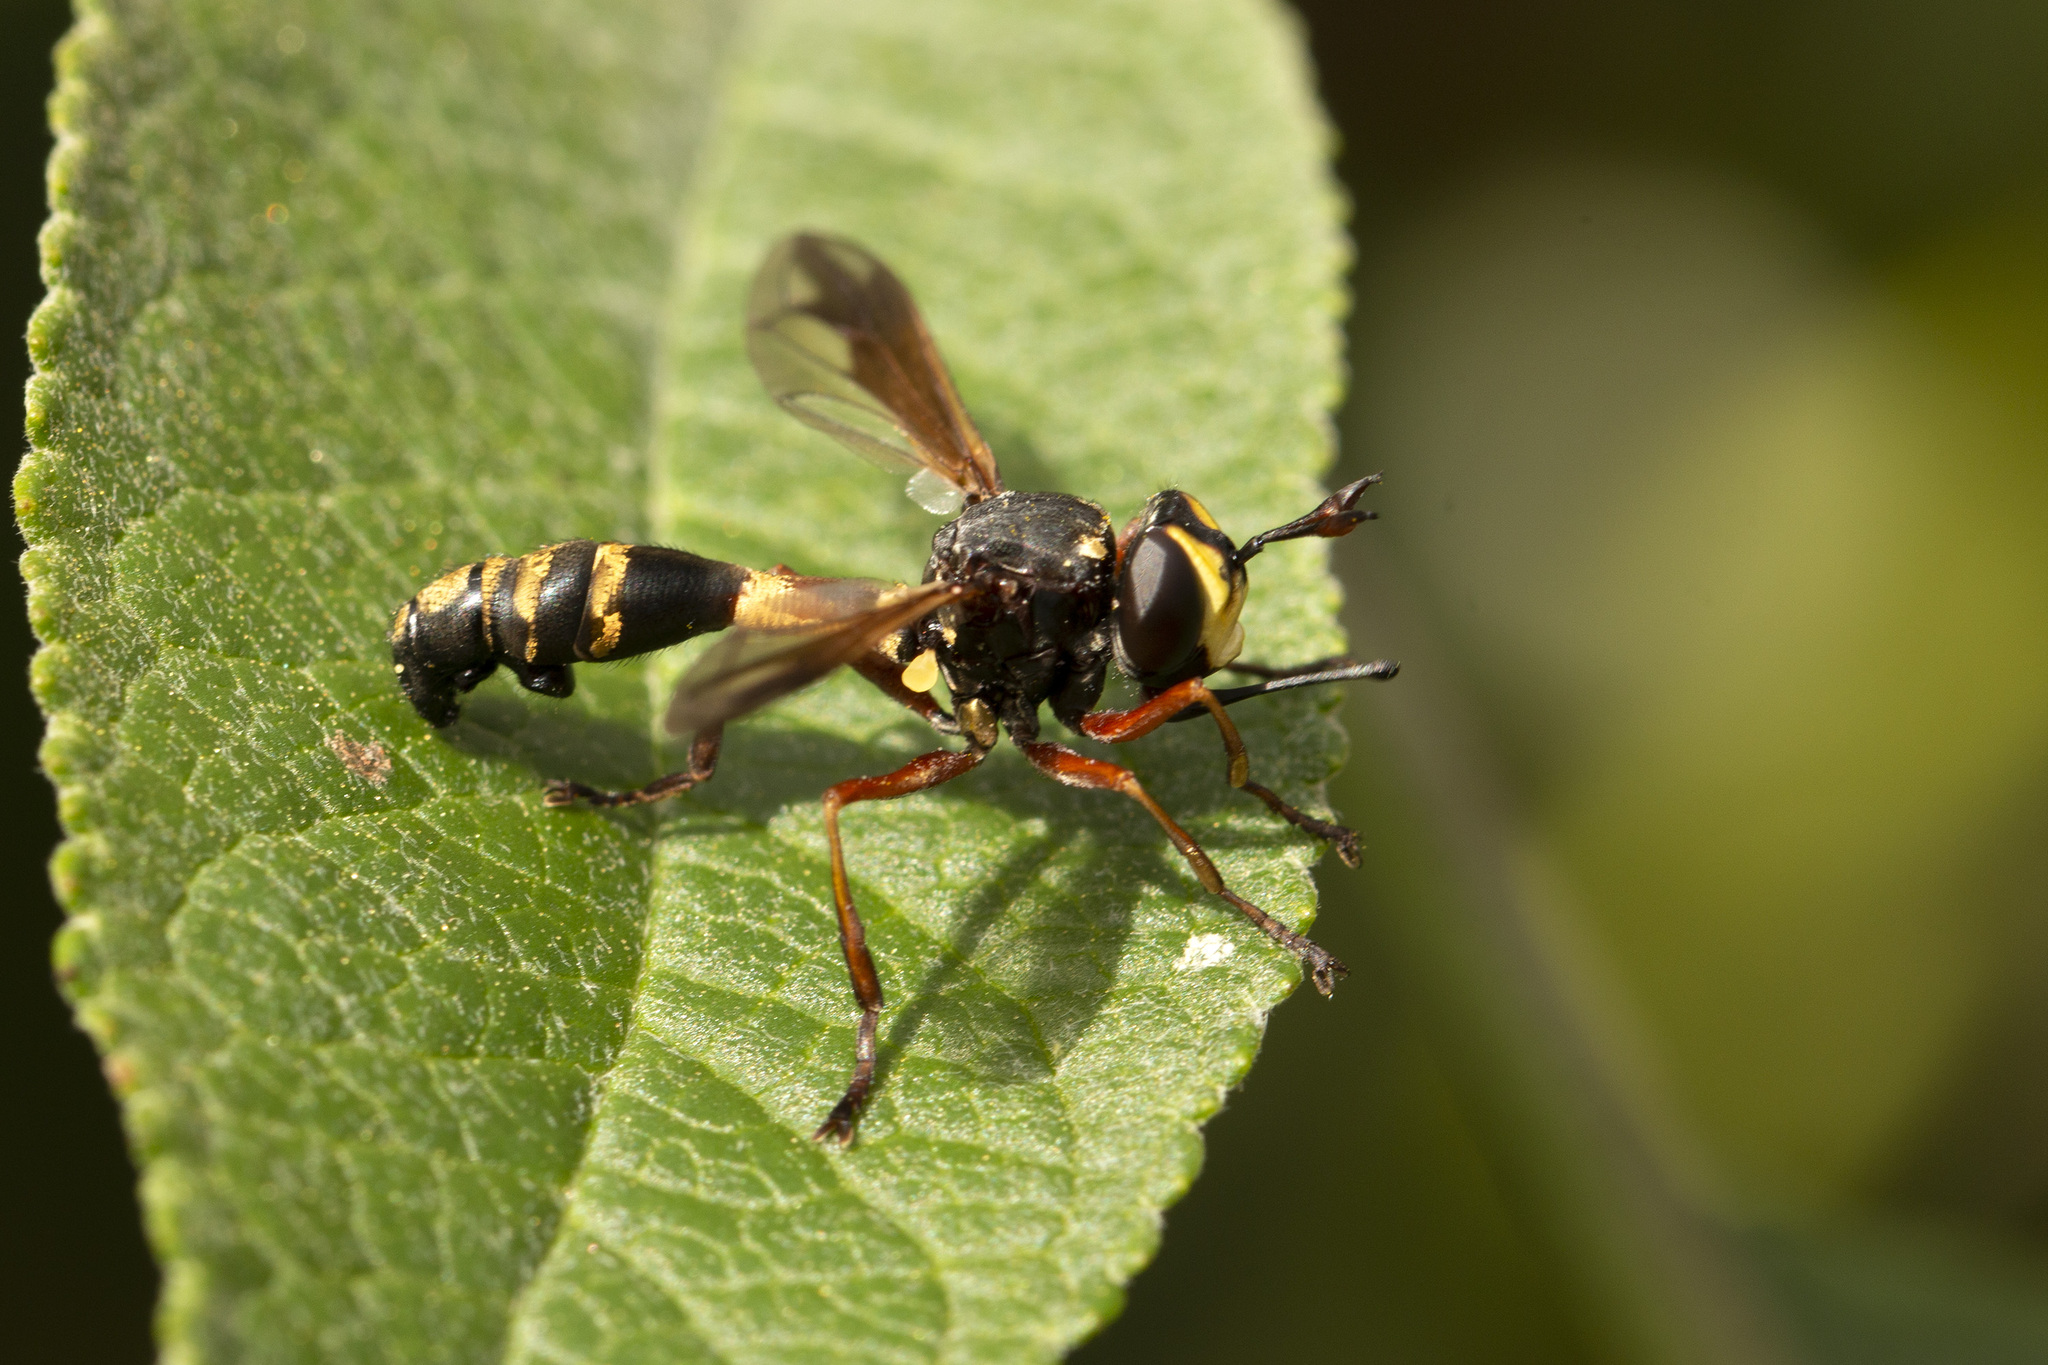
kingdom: Animalia
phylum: Arthropoda
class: Insecta
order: Diptera
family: Conopidae
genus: Physocephala
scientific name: Physocephala rufipes
